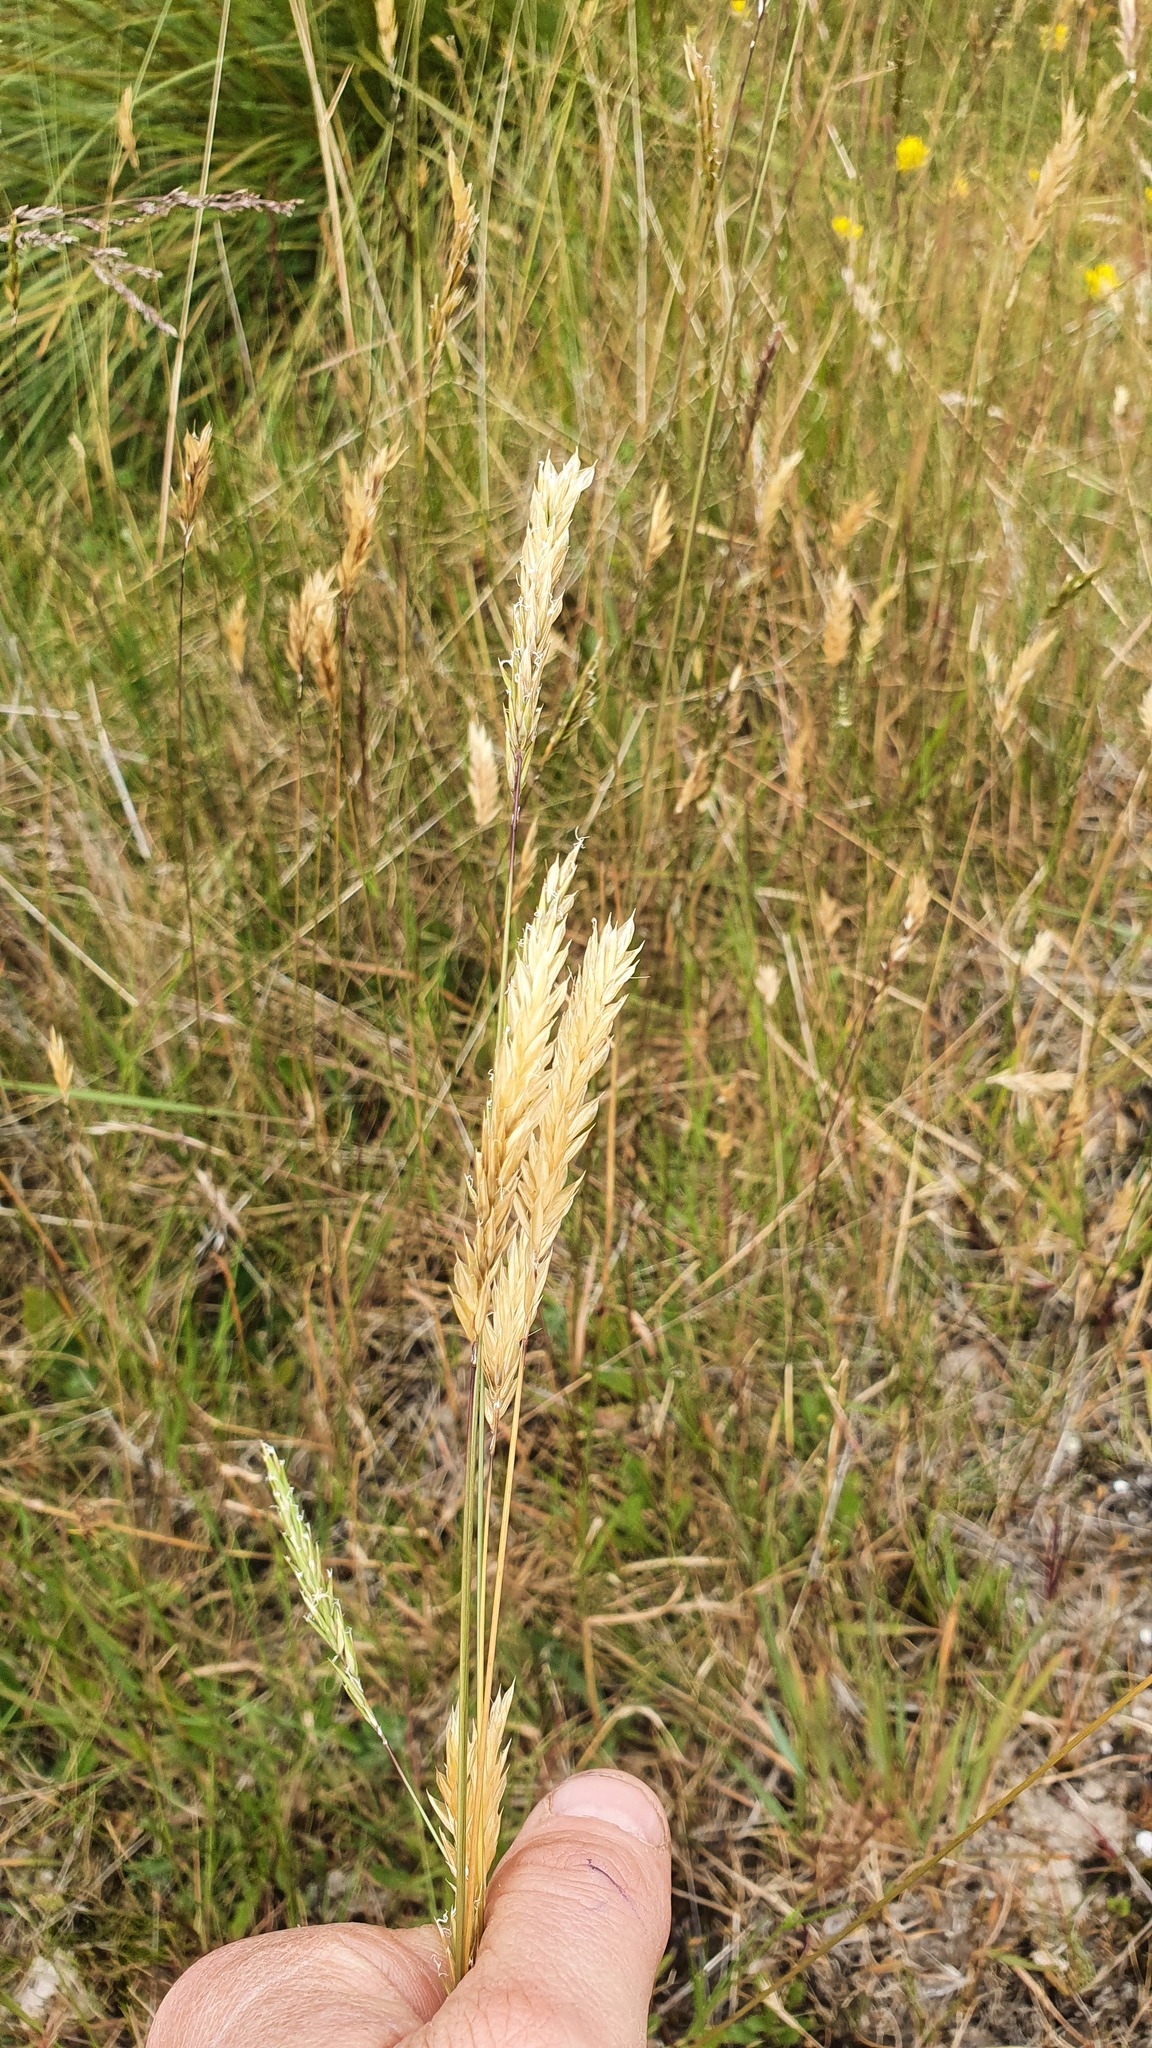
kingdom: Plantae
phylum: Tracheophyta
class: Liliopsida
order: Poales
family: Poaceae
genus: Anthoxanthum
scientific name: Anthoxanthum odoratum
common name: Sweet vernalgrass
